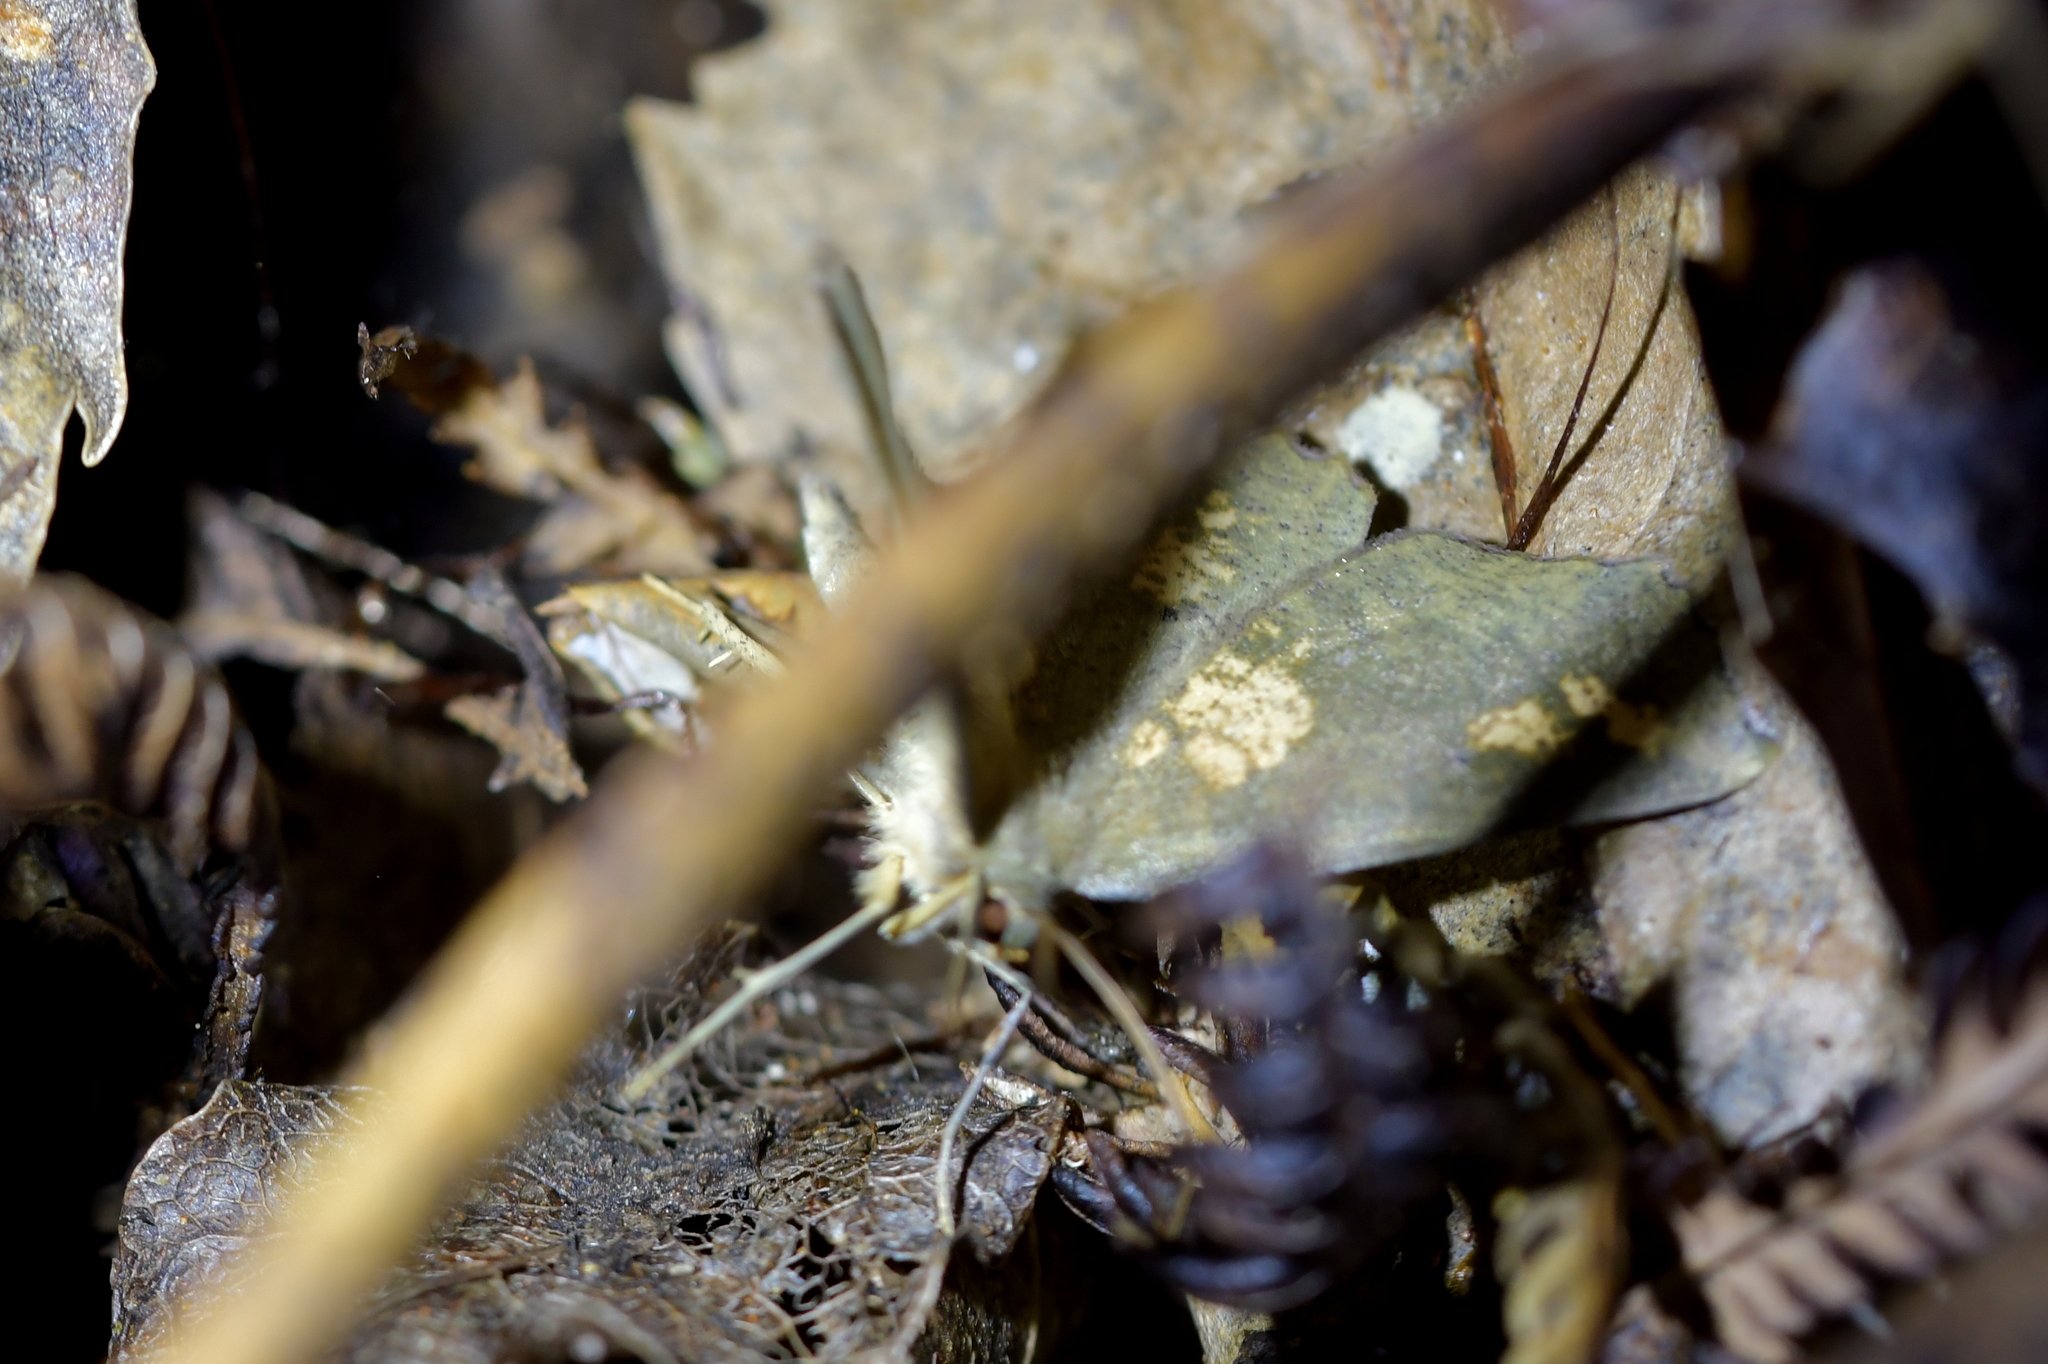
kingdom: Animalia
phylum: Arthropoda
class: Insecta
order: Lepidoptera
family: Geometridae
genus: Xyridacma
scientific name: Xyridacma ustaria
